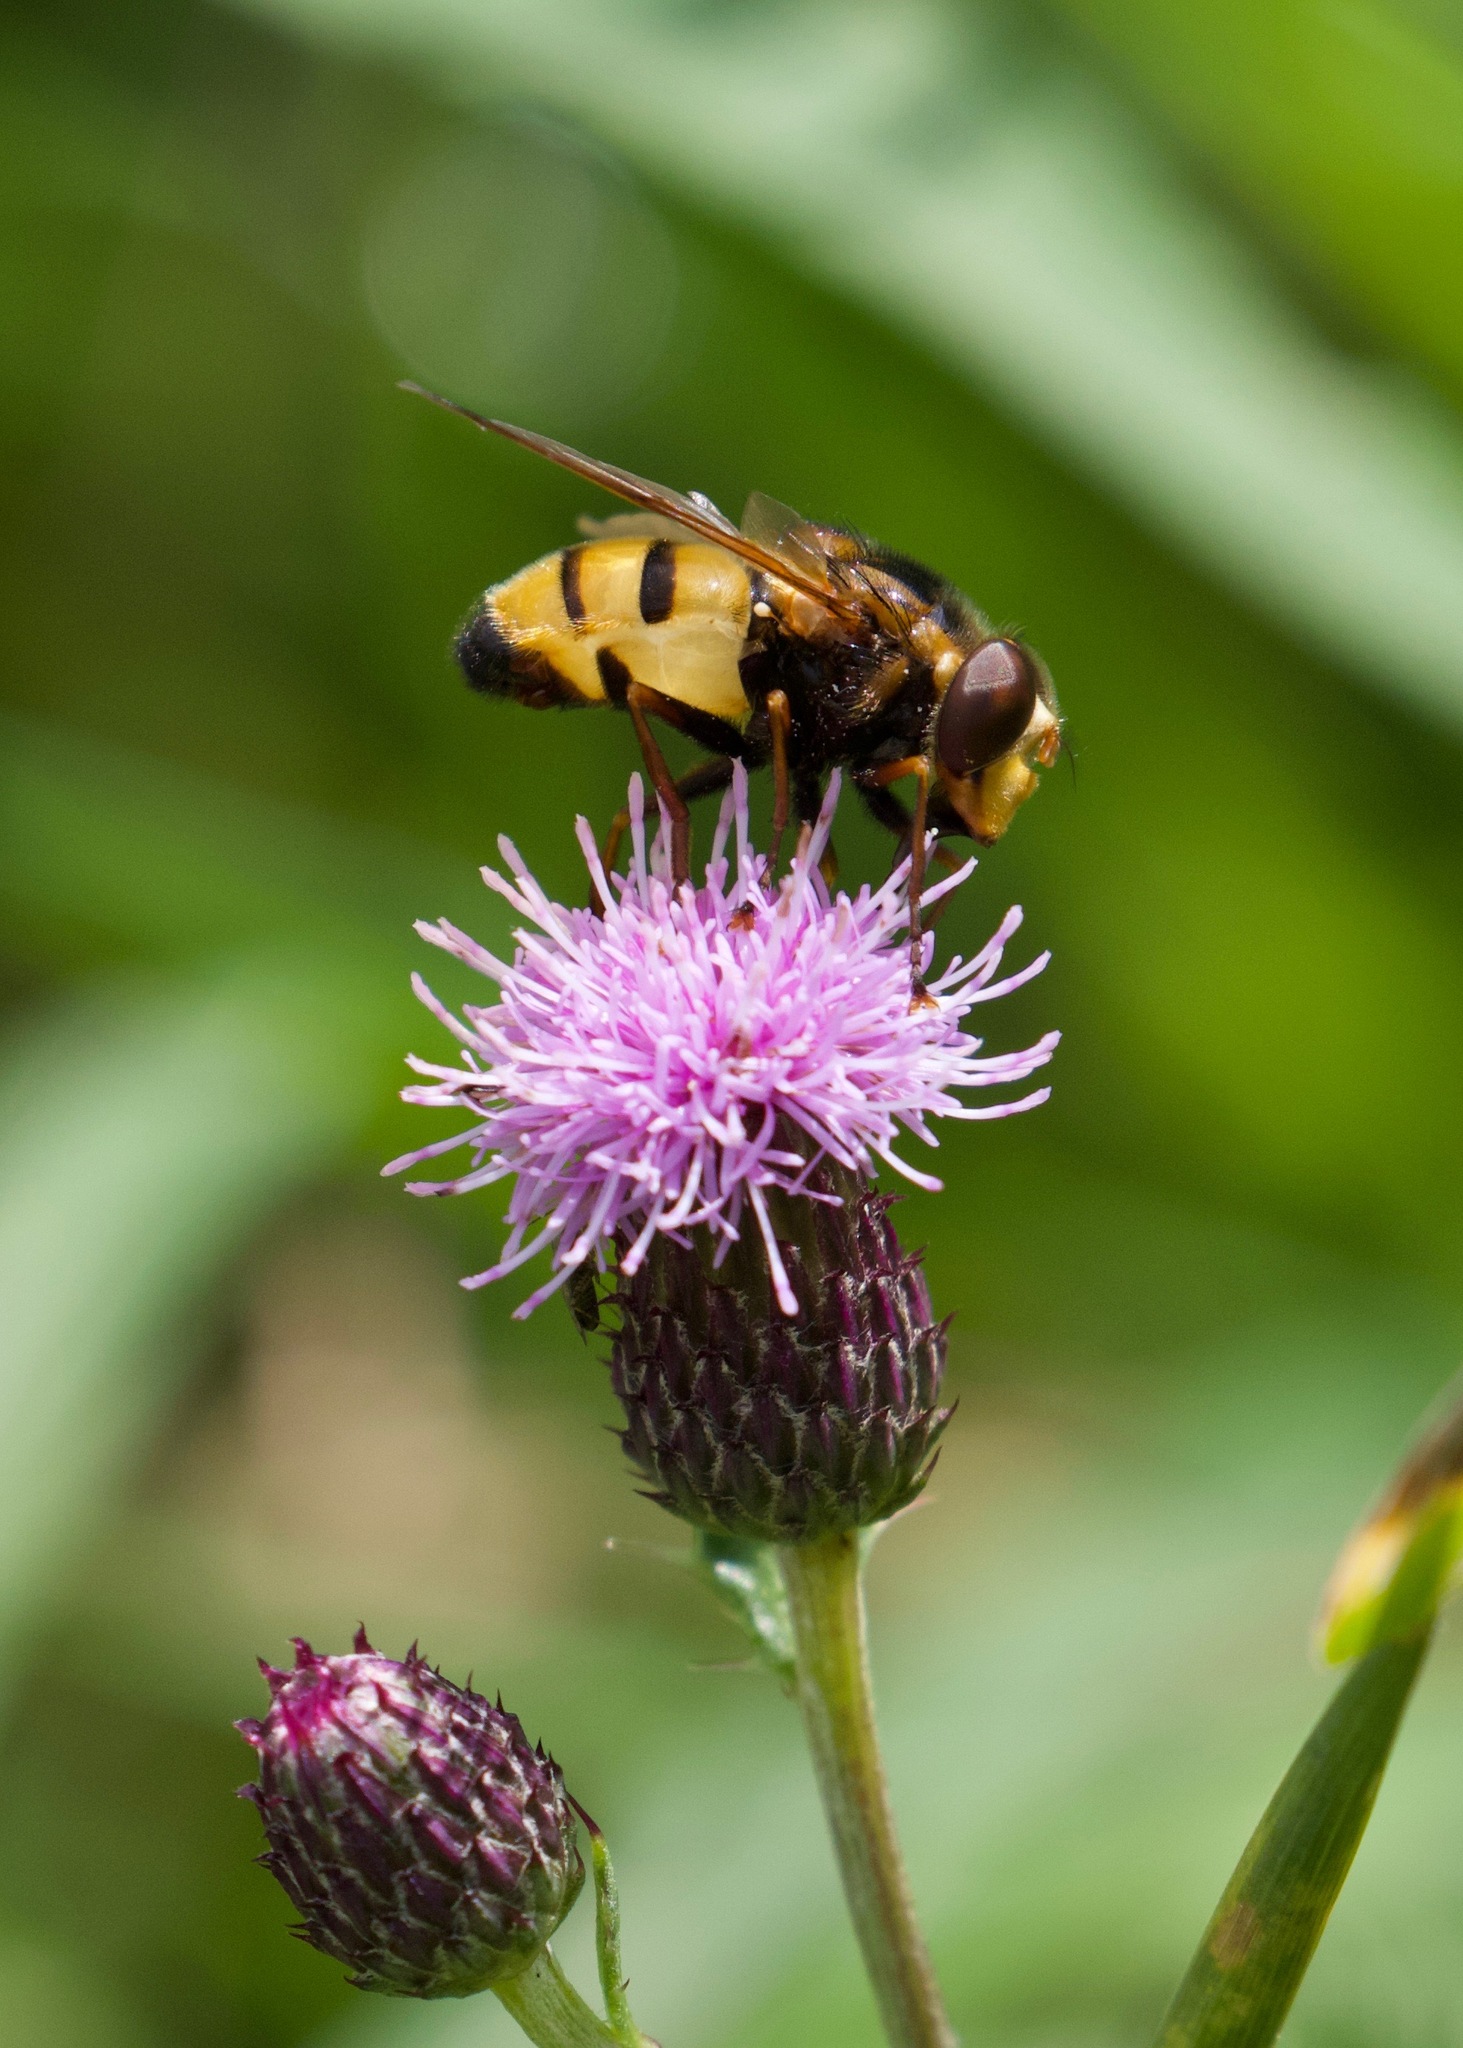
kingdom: Animalia
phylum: Arthropoda
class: Insecta
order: Diptera
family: Syrphidae
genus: Volucella
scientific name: Volucella inanis
